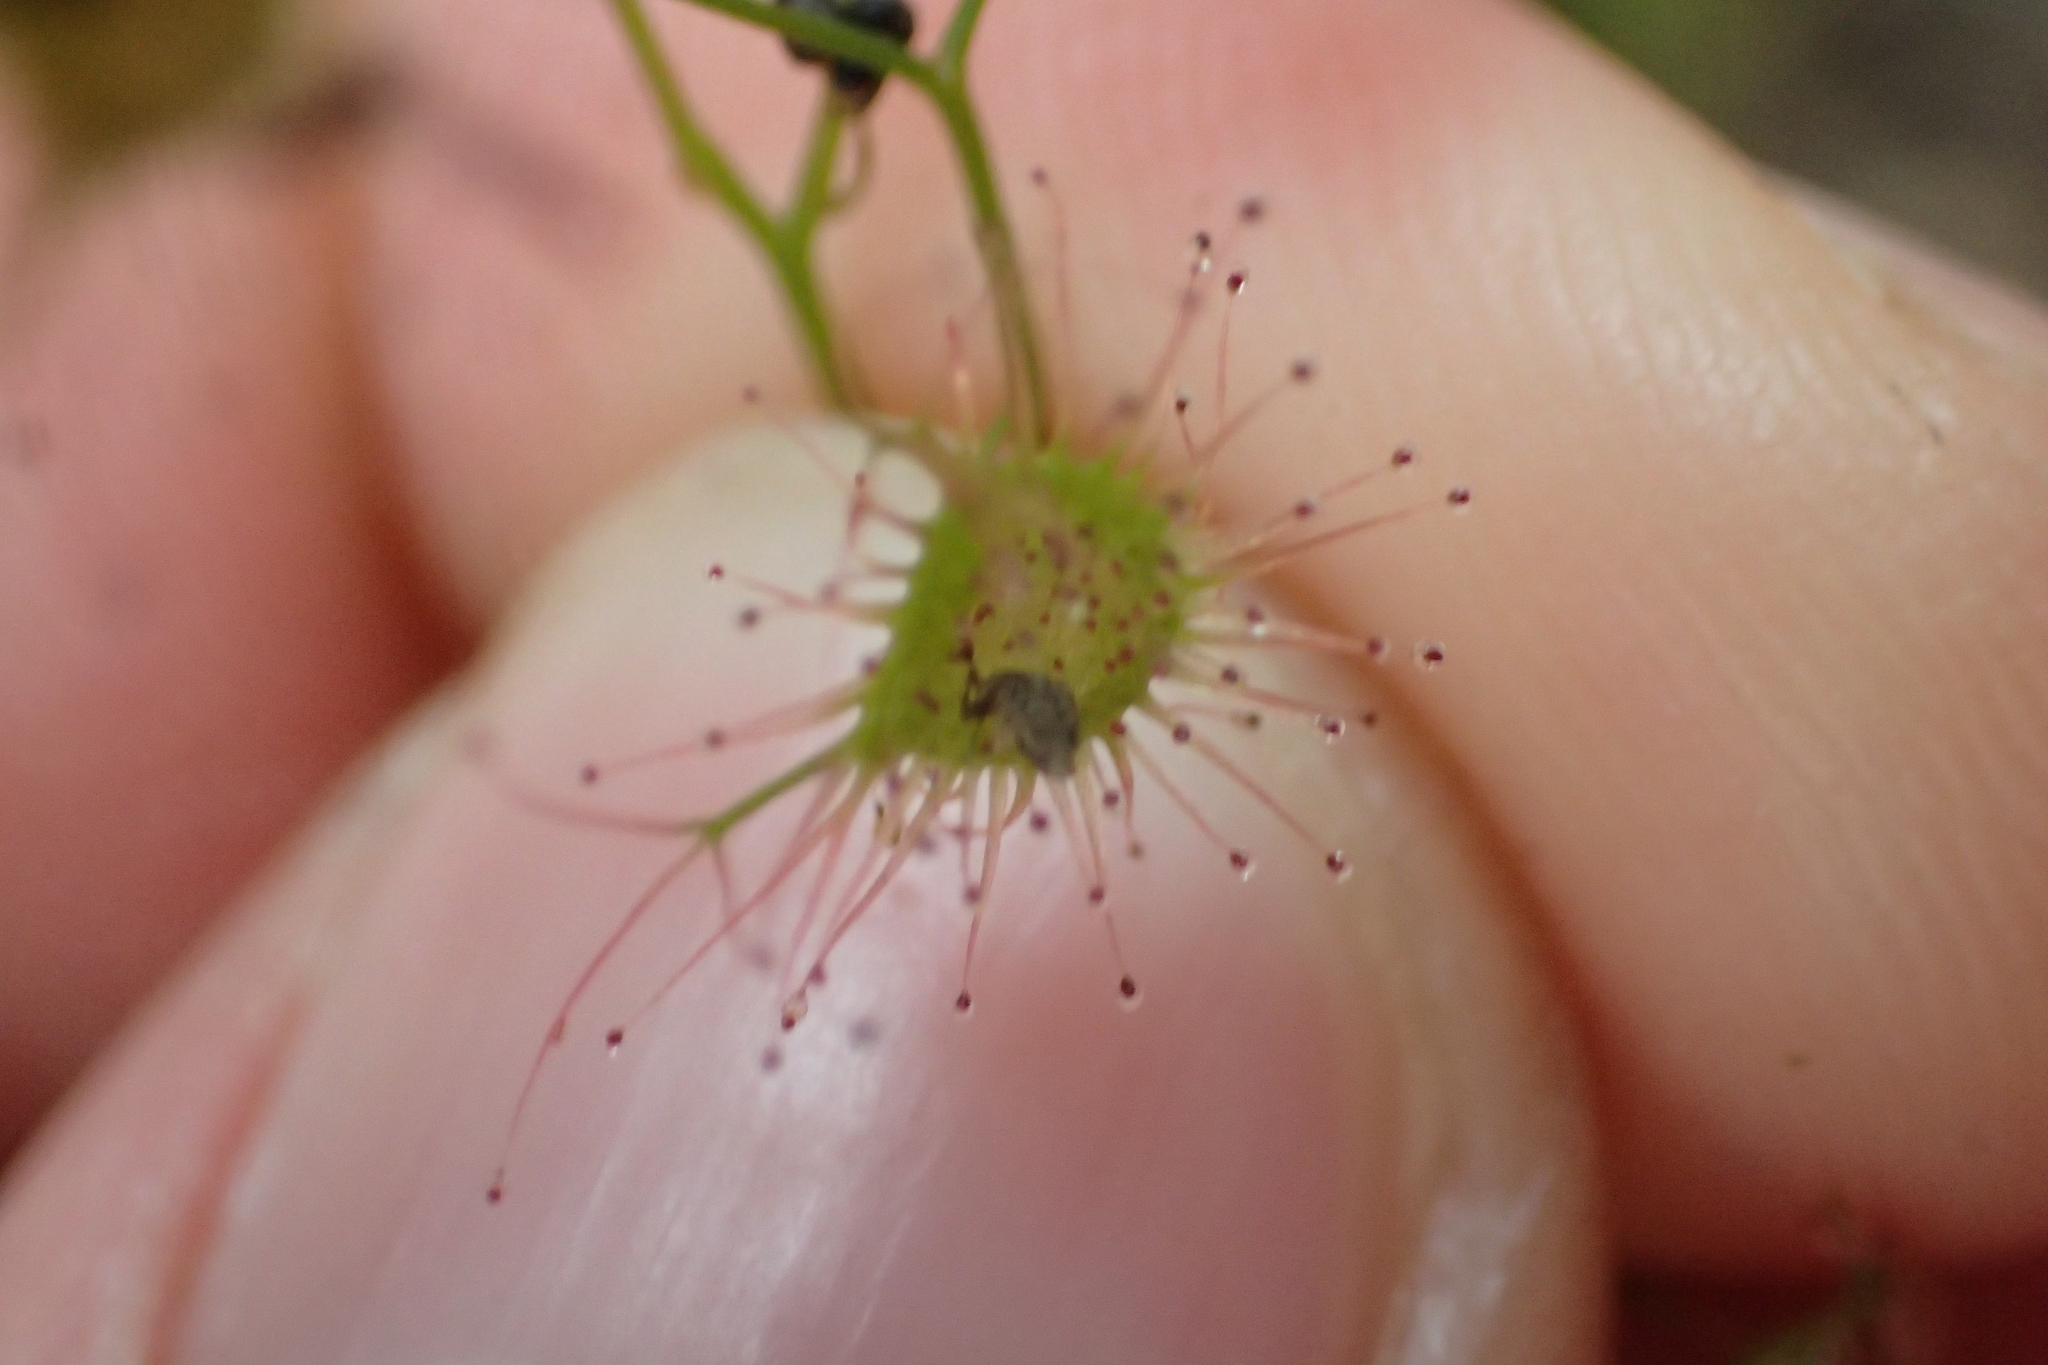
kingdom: Plantae
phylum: Tracheophyta
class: Magnoliopsida
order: Caryophyllales
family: Droseraceae
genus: Drosera
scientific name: Drosera peltata
